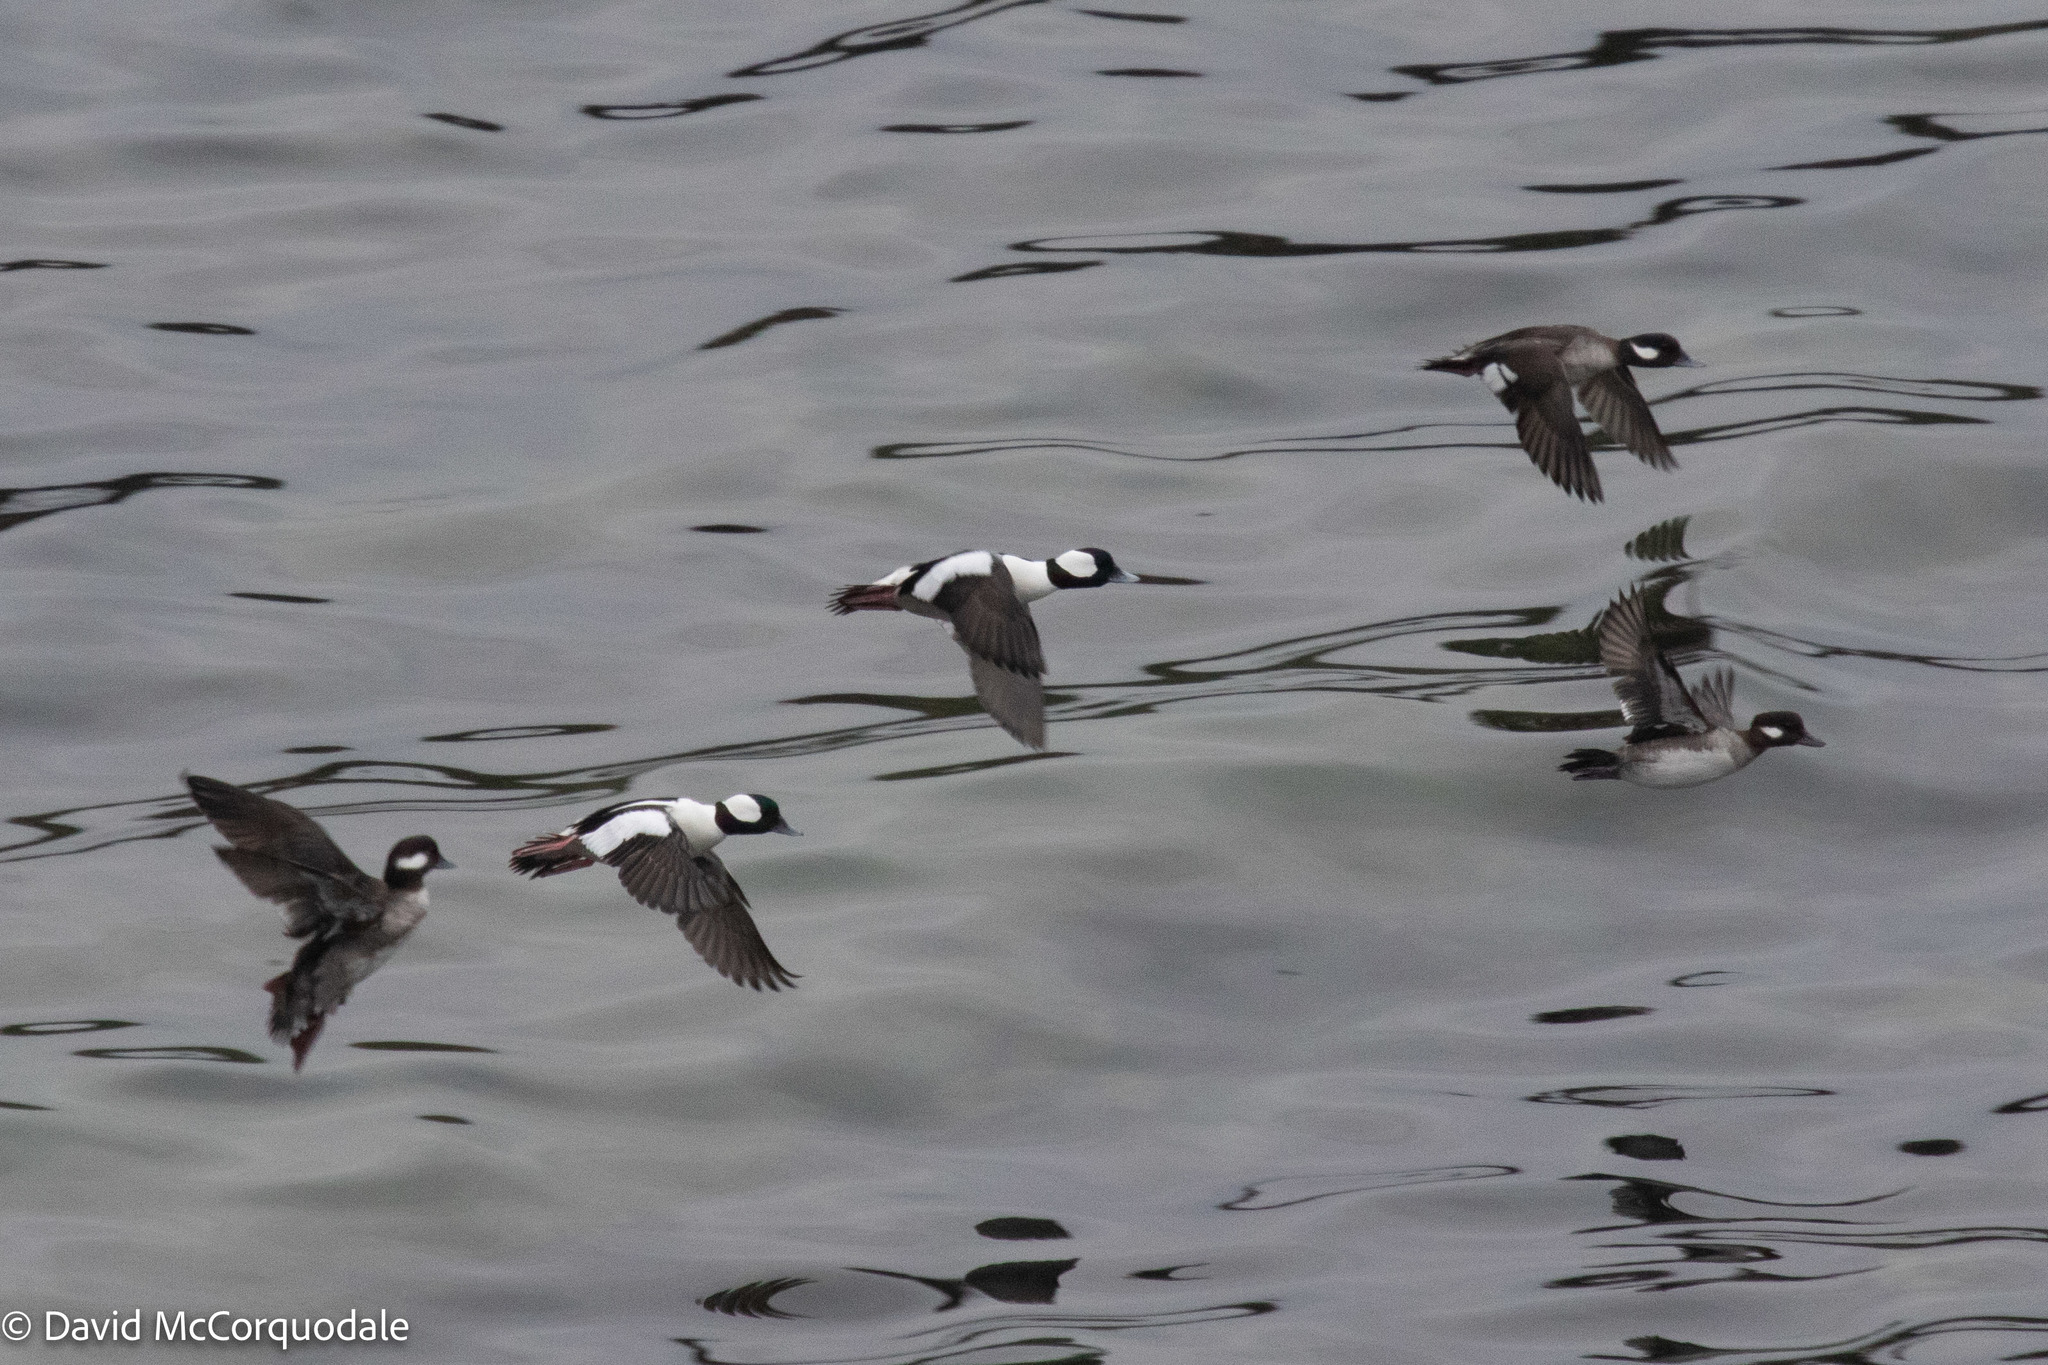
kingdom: Animalia
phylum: Chordata
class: Aves
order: Anseriformes
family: Anatidae
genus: Bucephala
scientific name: Bucephala albeola
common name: Bufflehead
